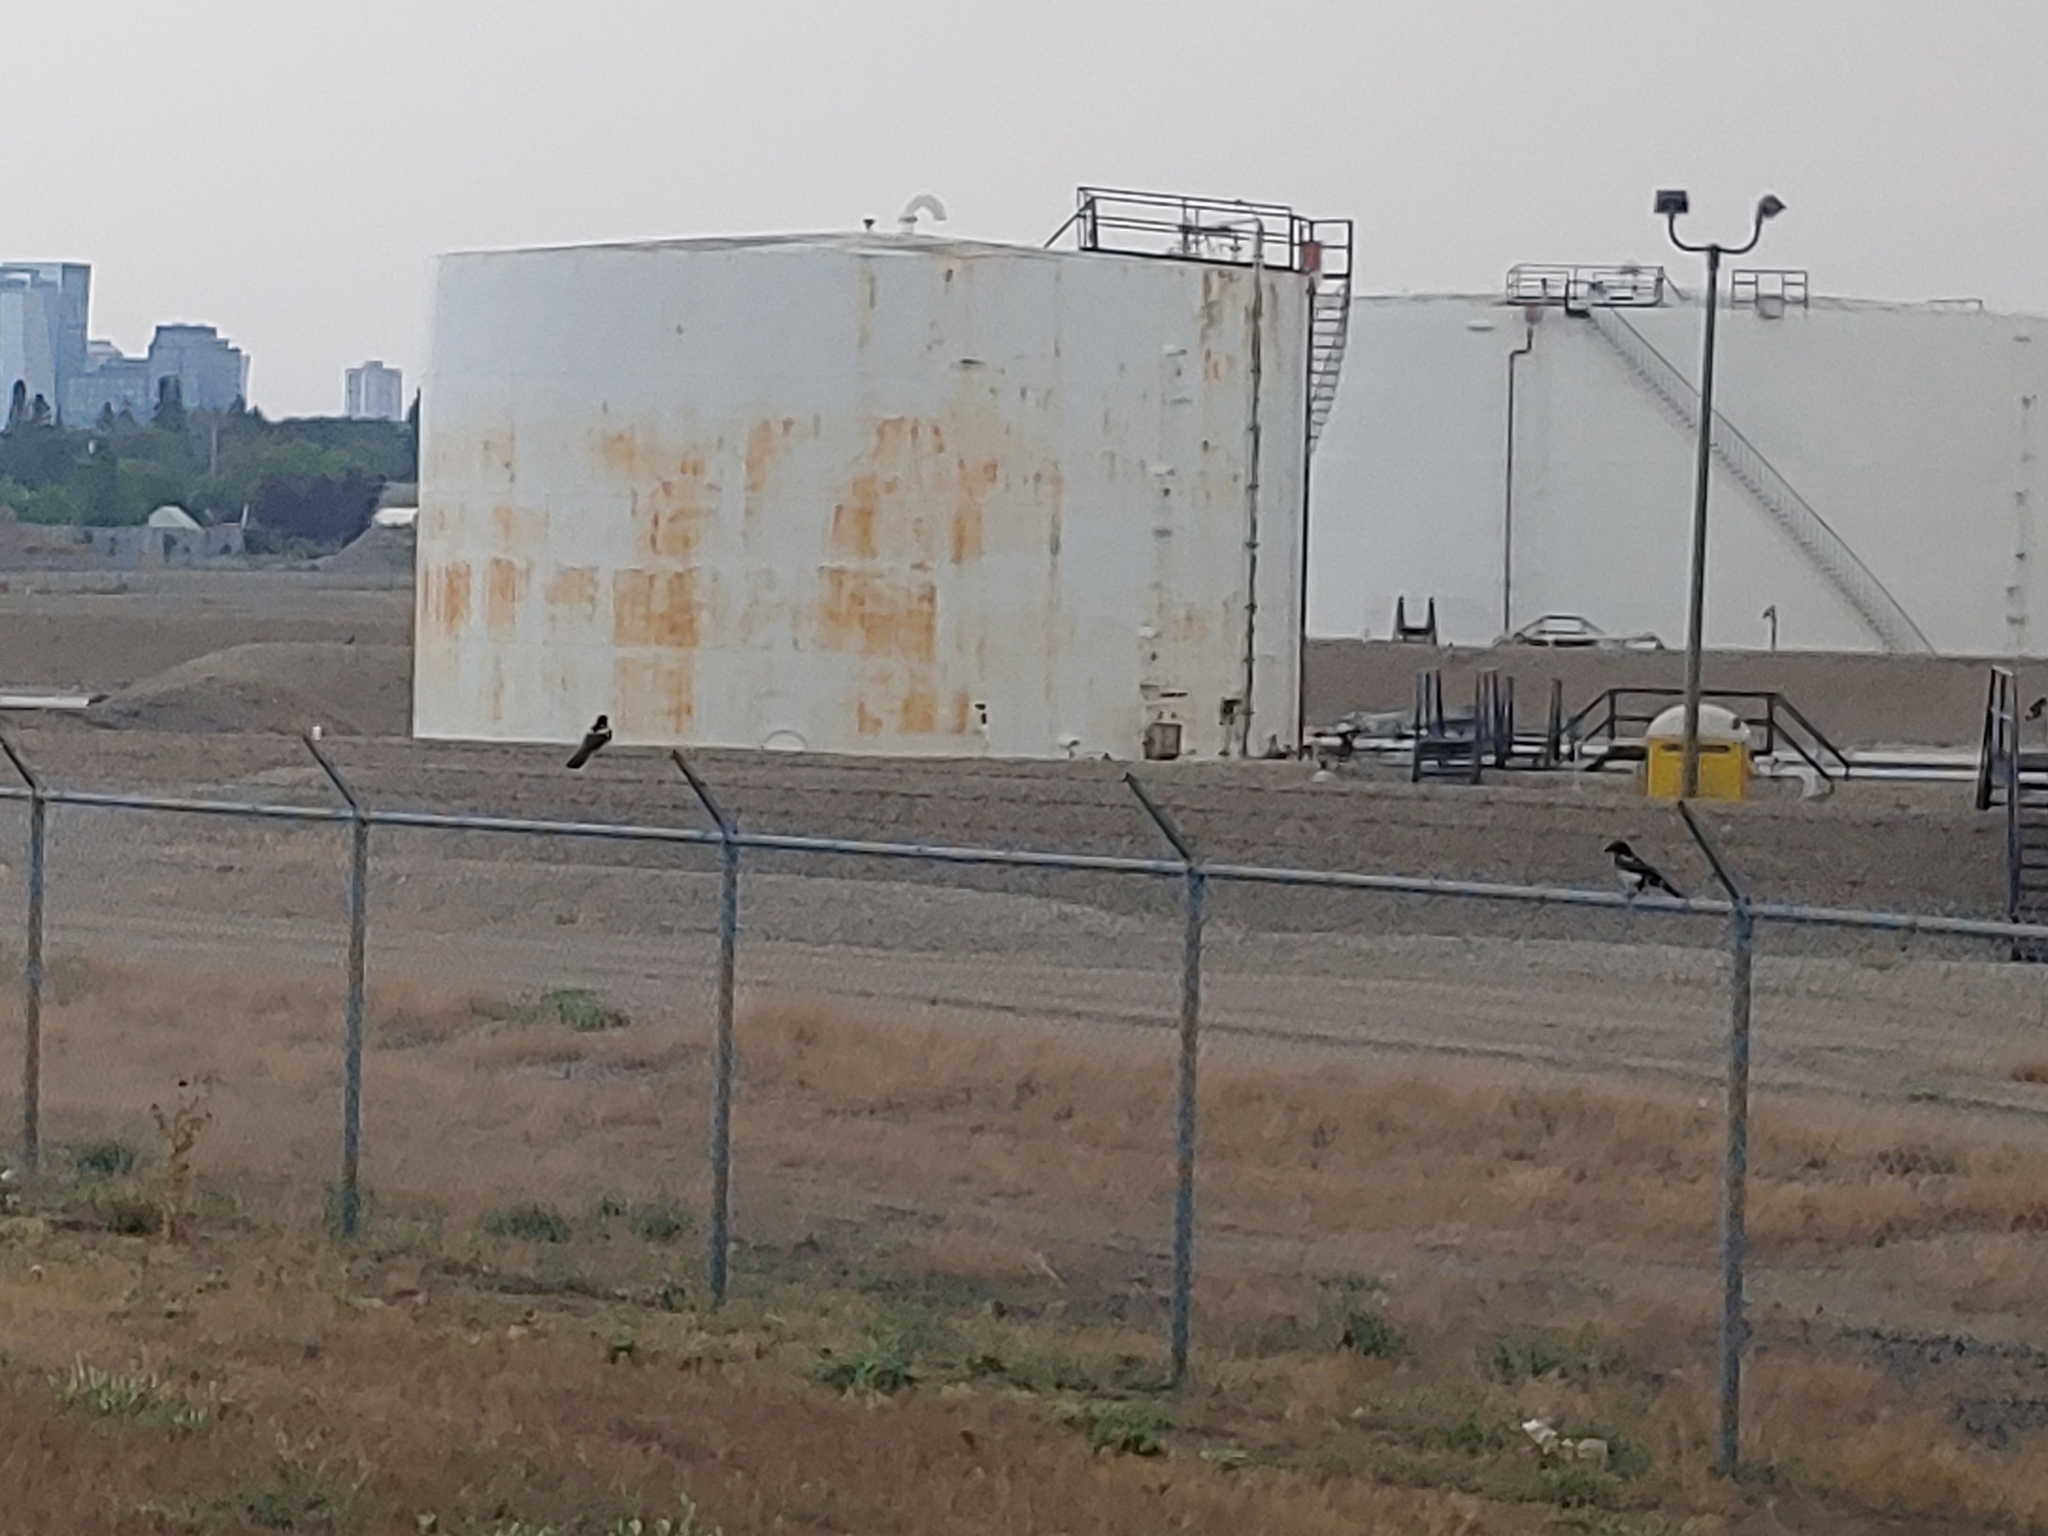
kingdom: Animalia
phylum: Chordata
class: Aves
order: Passeriformes
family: Corvidae
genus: Pica
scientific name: Pica hudsonia
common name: Black-billed magpie
